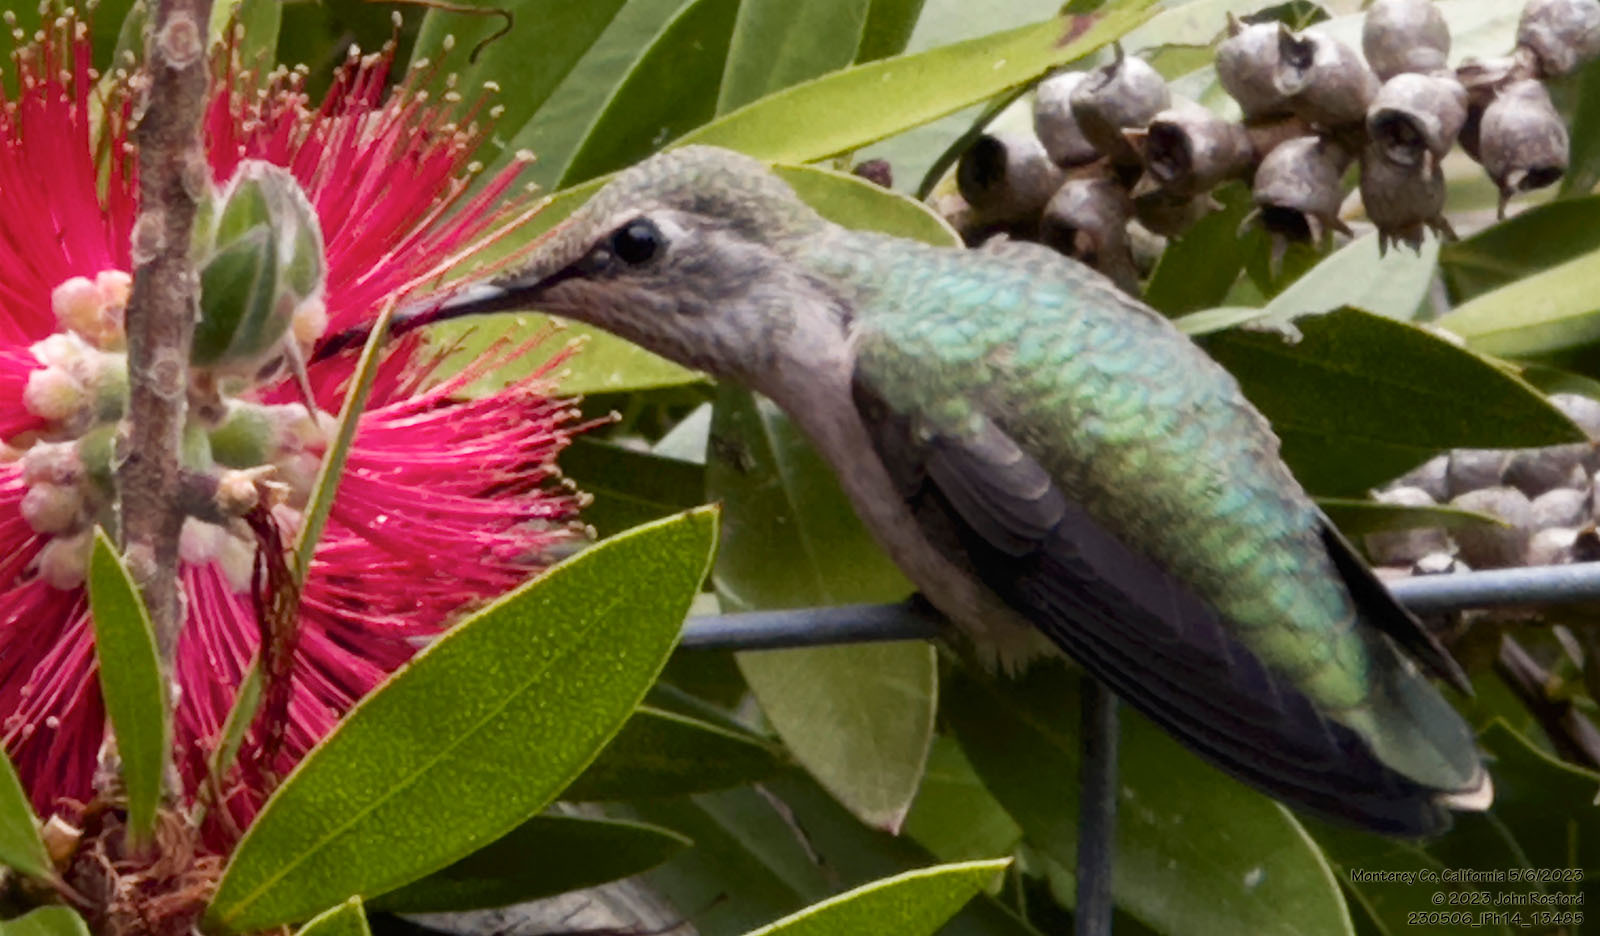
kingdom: Animalia
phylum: Chordata
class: Aves
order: Apodiformes
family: Trochilidae
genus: Calypte
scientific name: Calypte anna
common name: Anna's hummingbird
